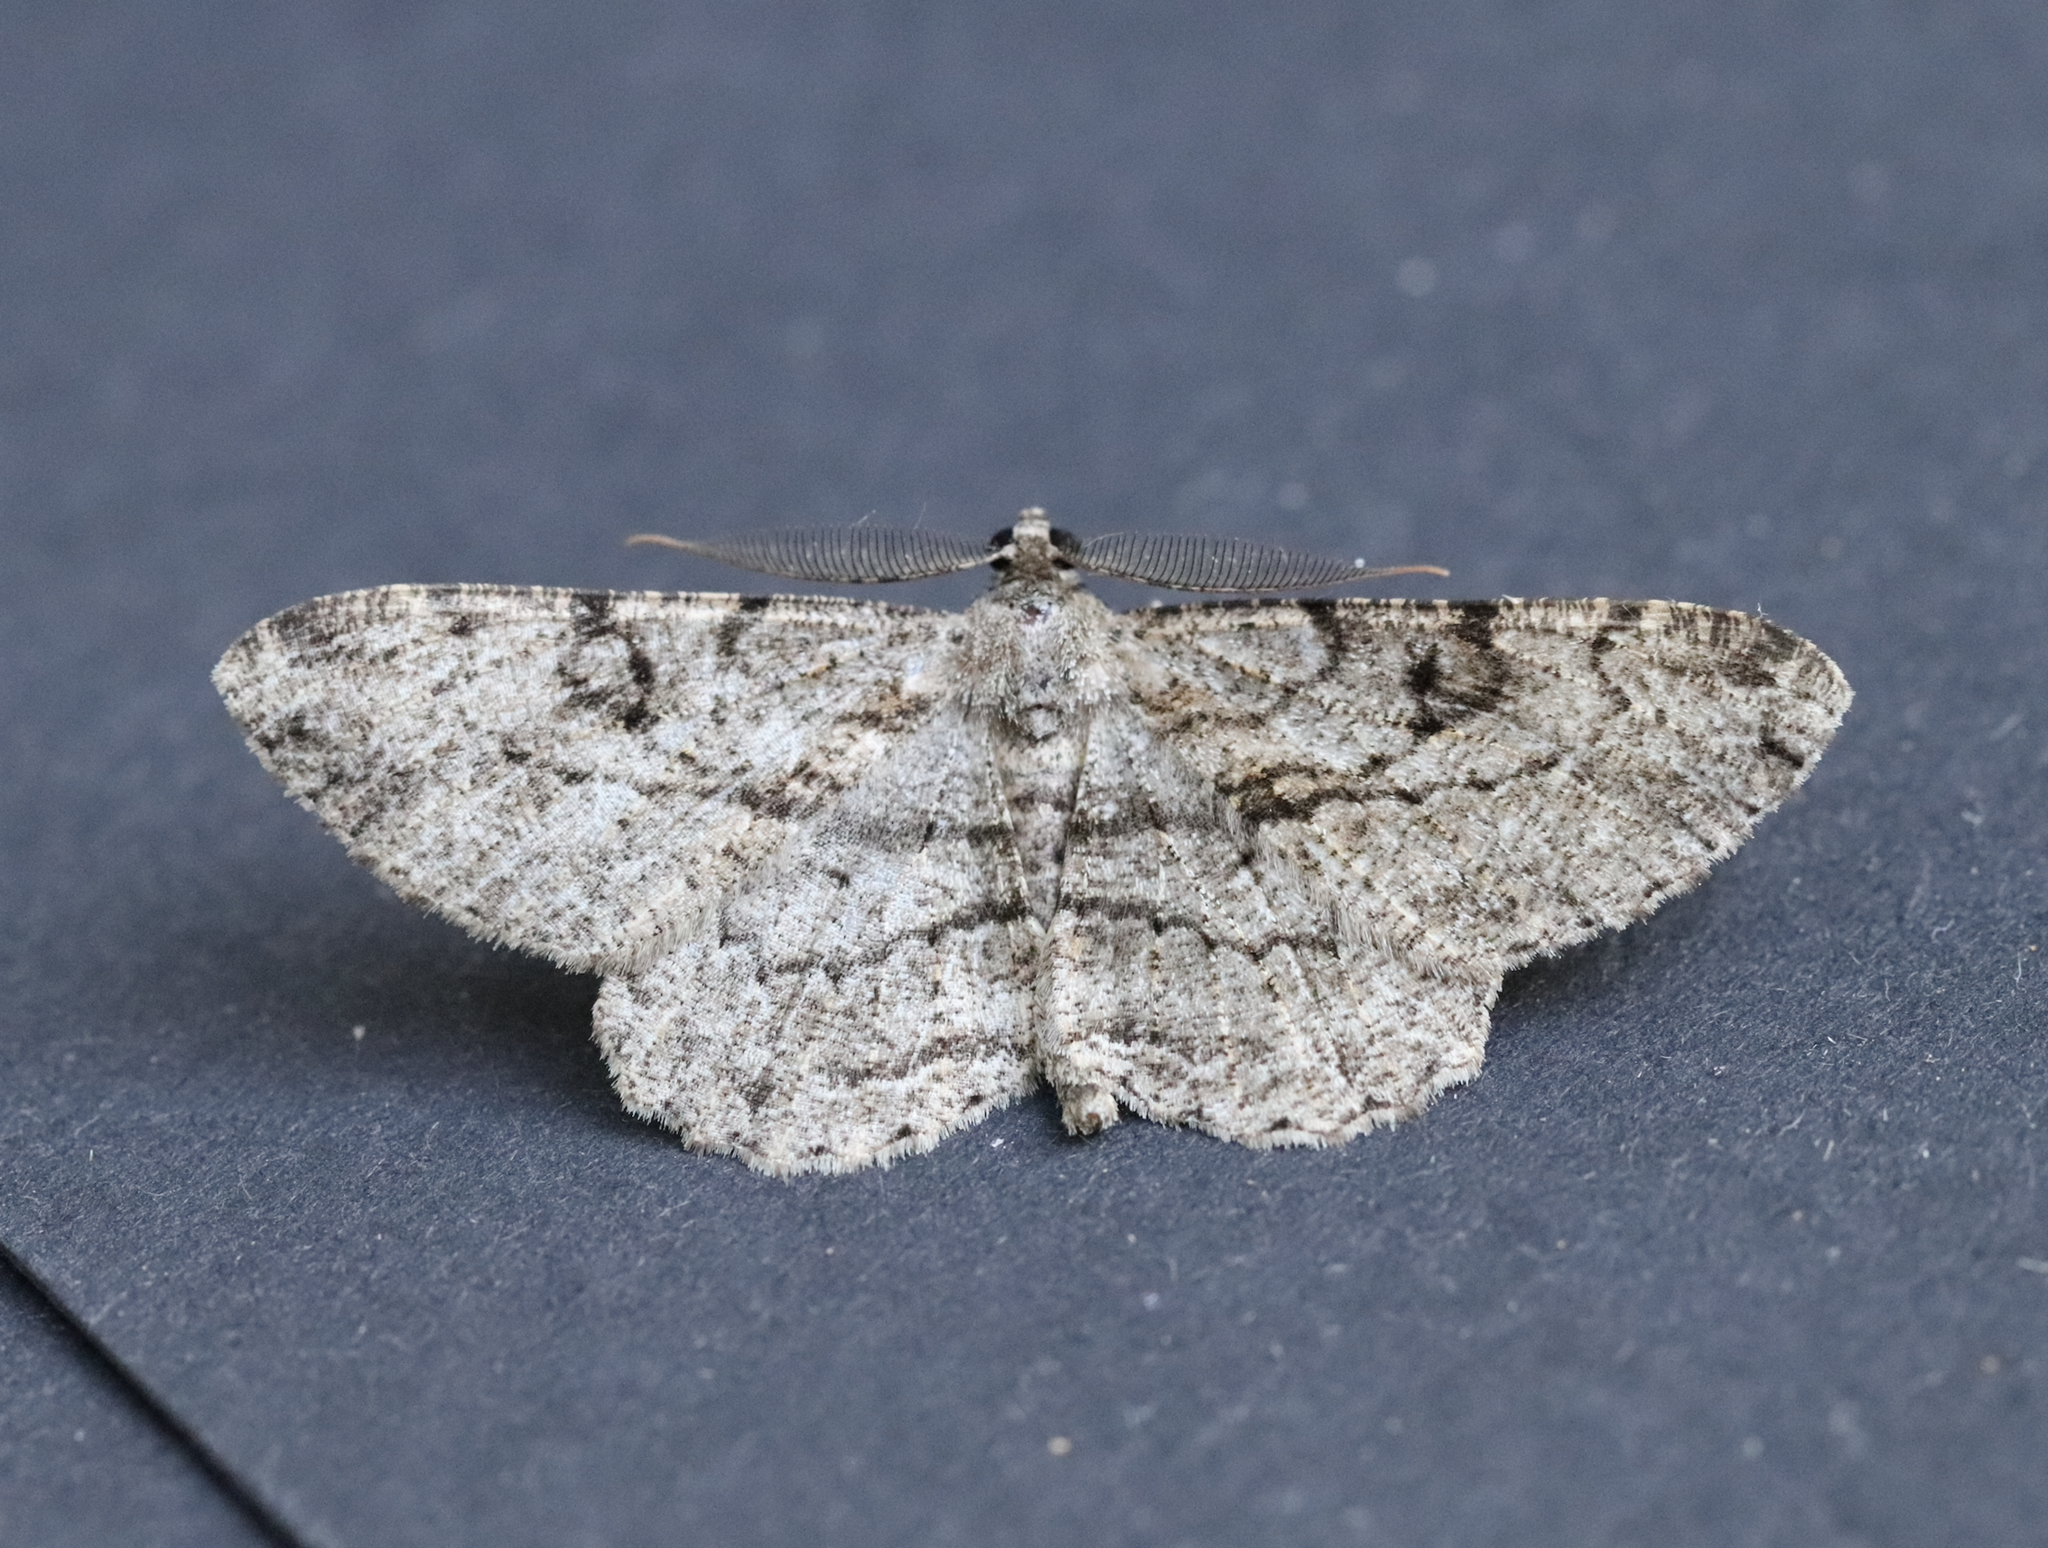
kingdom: Animalia
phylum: Arthropoda
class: Insecta
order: Lepidoptera
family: Geometridae
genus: Peribatodes
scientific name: Peribatodes rhomboidaria
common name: Willow beauty
